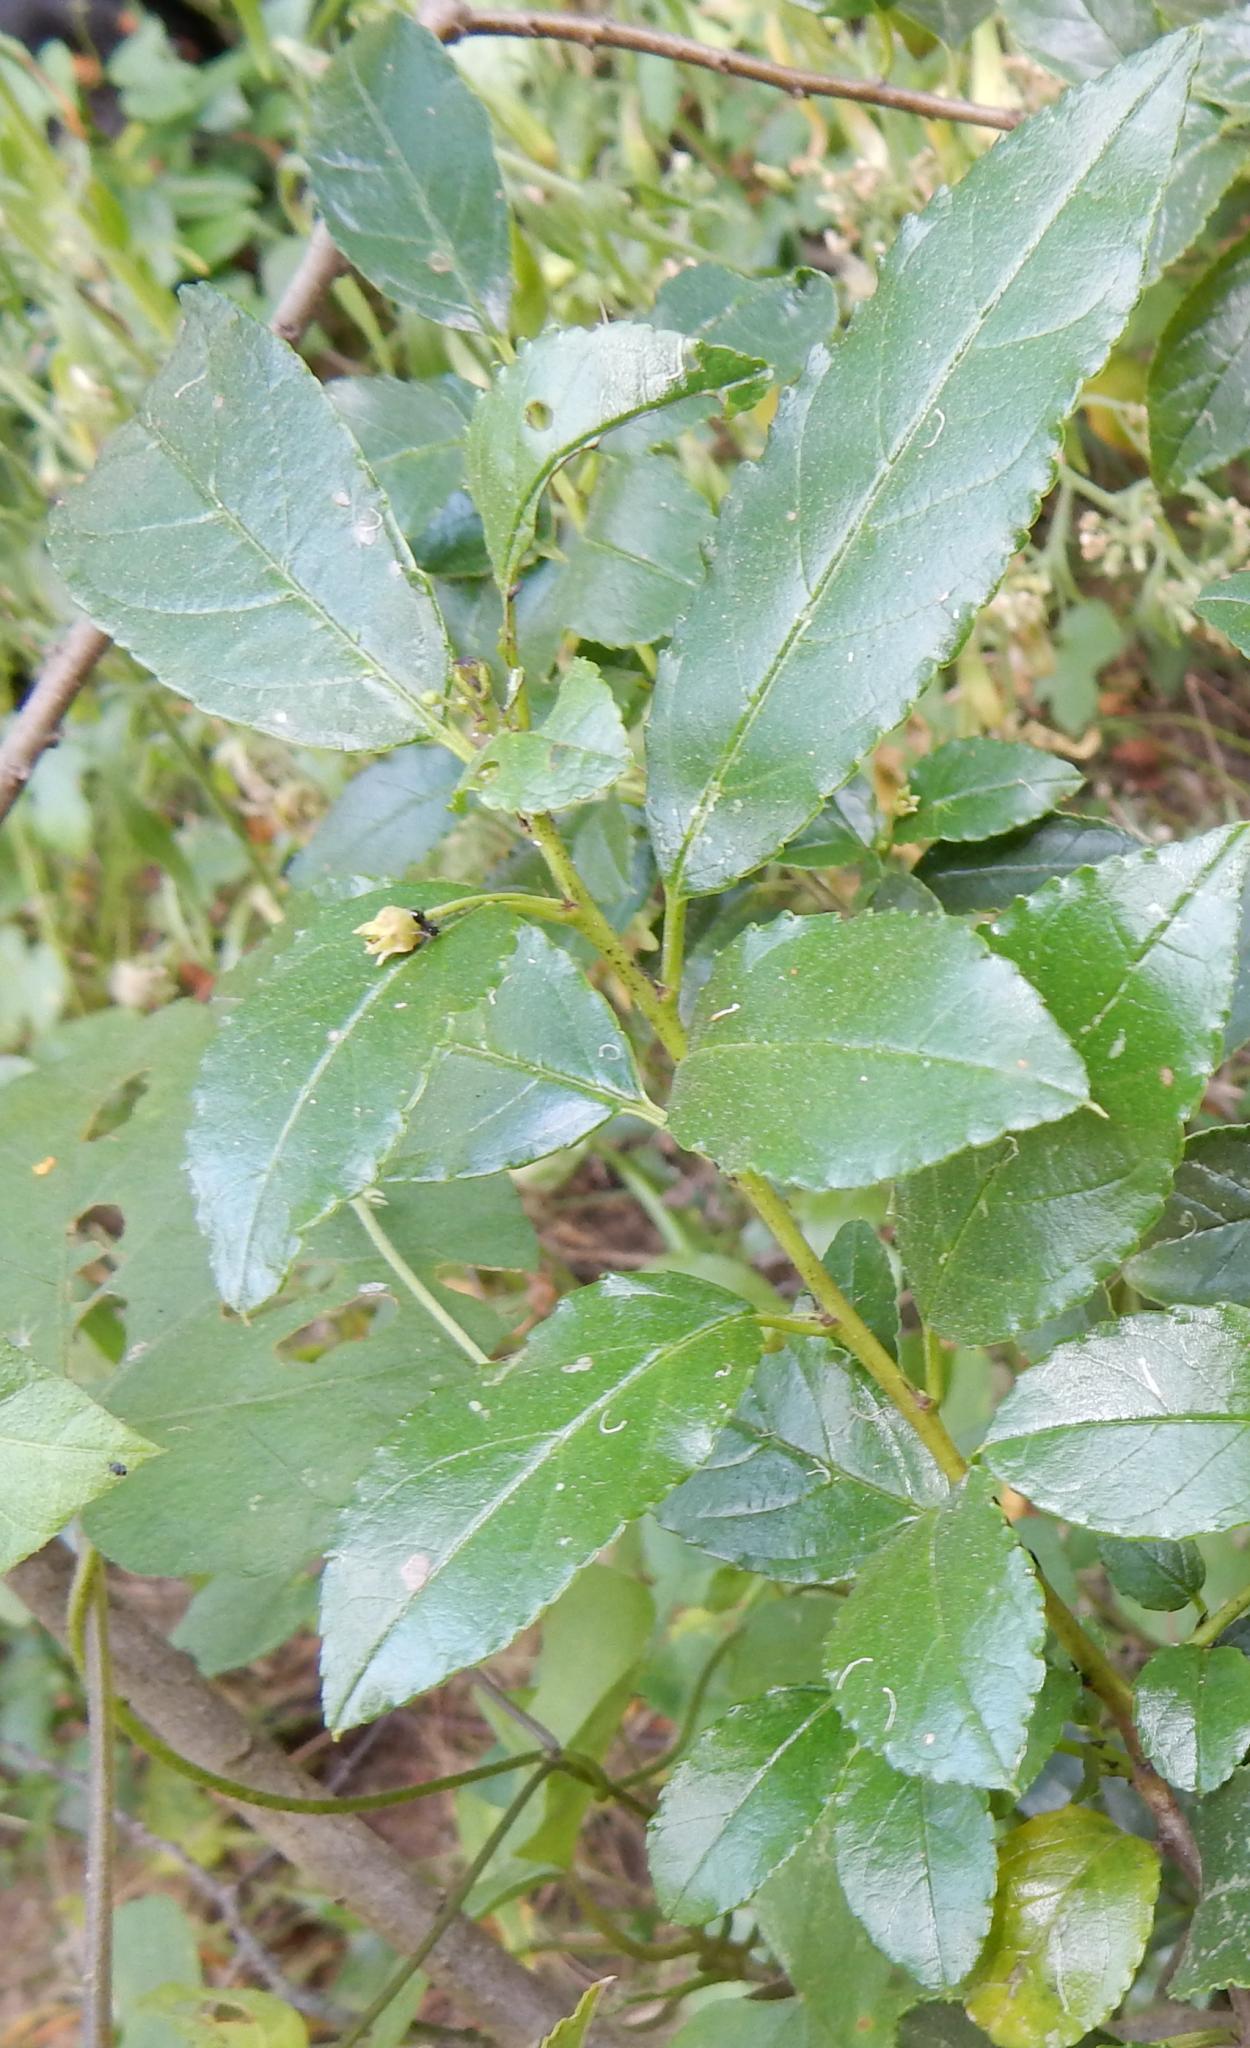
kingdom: Plantae
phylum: Tracheophyta
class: Magnoliopsida
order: Rosales
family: Rhamnaceae
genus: Rhamnus
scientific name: Rhamnus prinoides
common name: Dogwood
